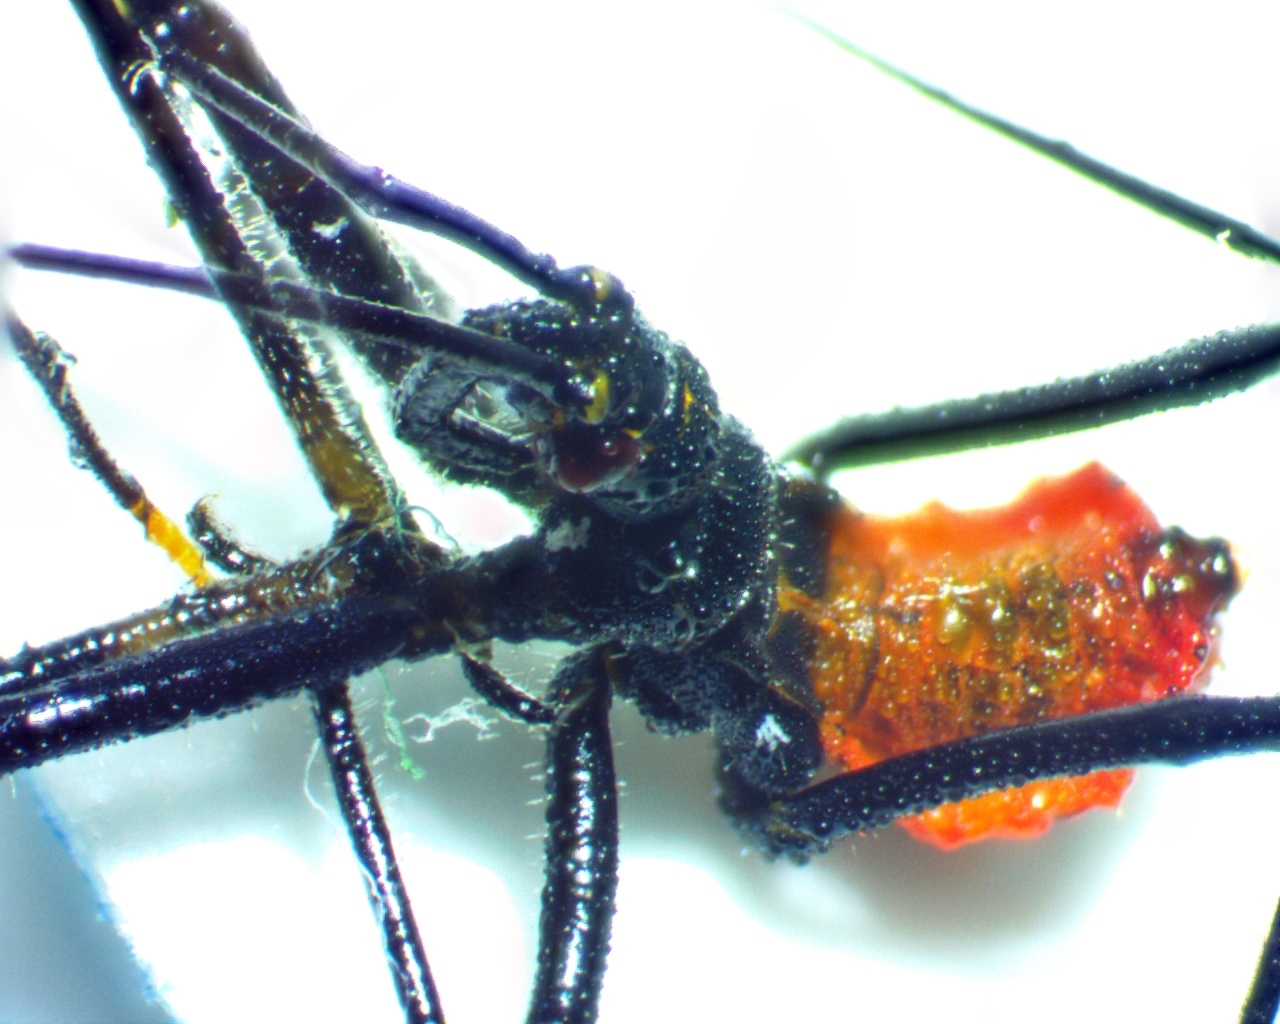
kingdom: Animalia
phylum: Arthropoda
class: Insecta
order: Hemiptera
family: Reduviidae
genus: Arilus
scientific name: Arilus cristatus
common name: North american wheel bug
